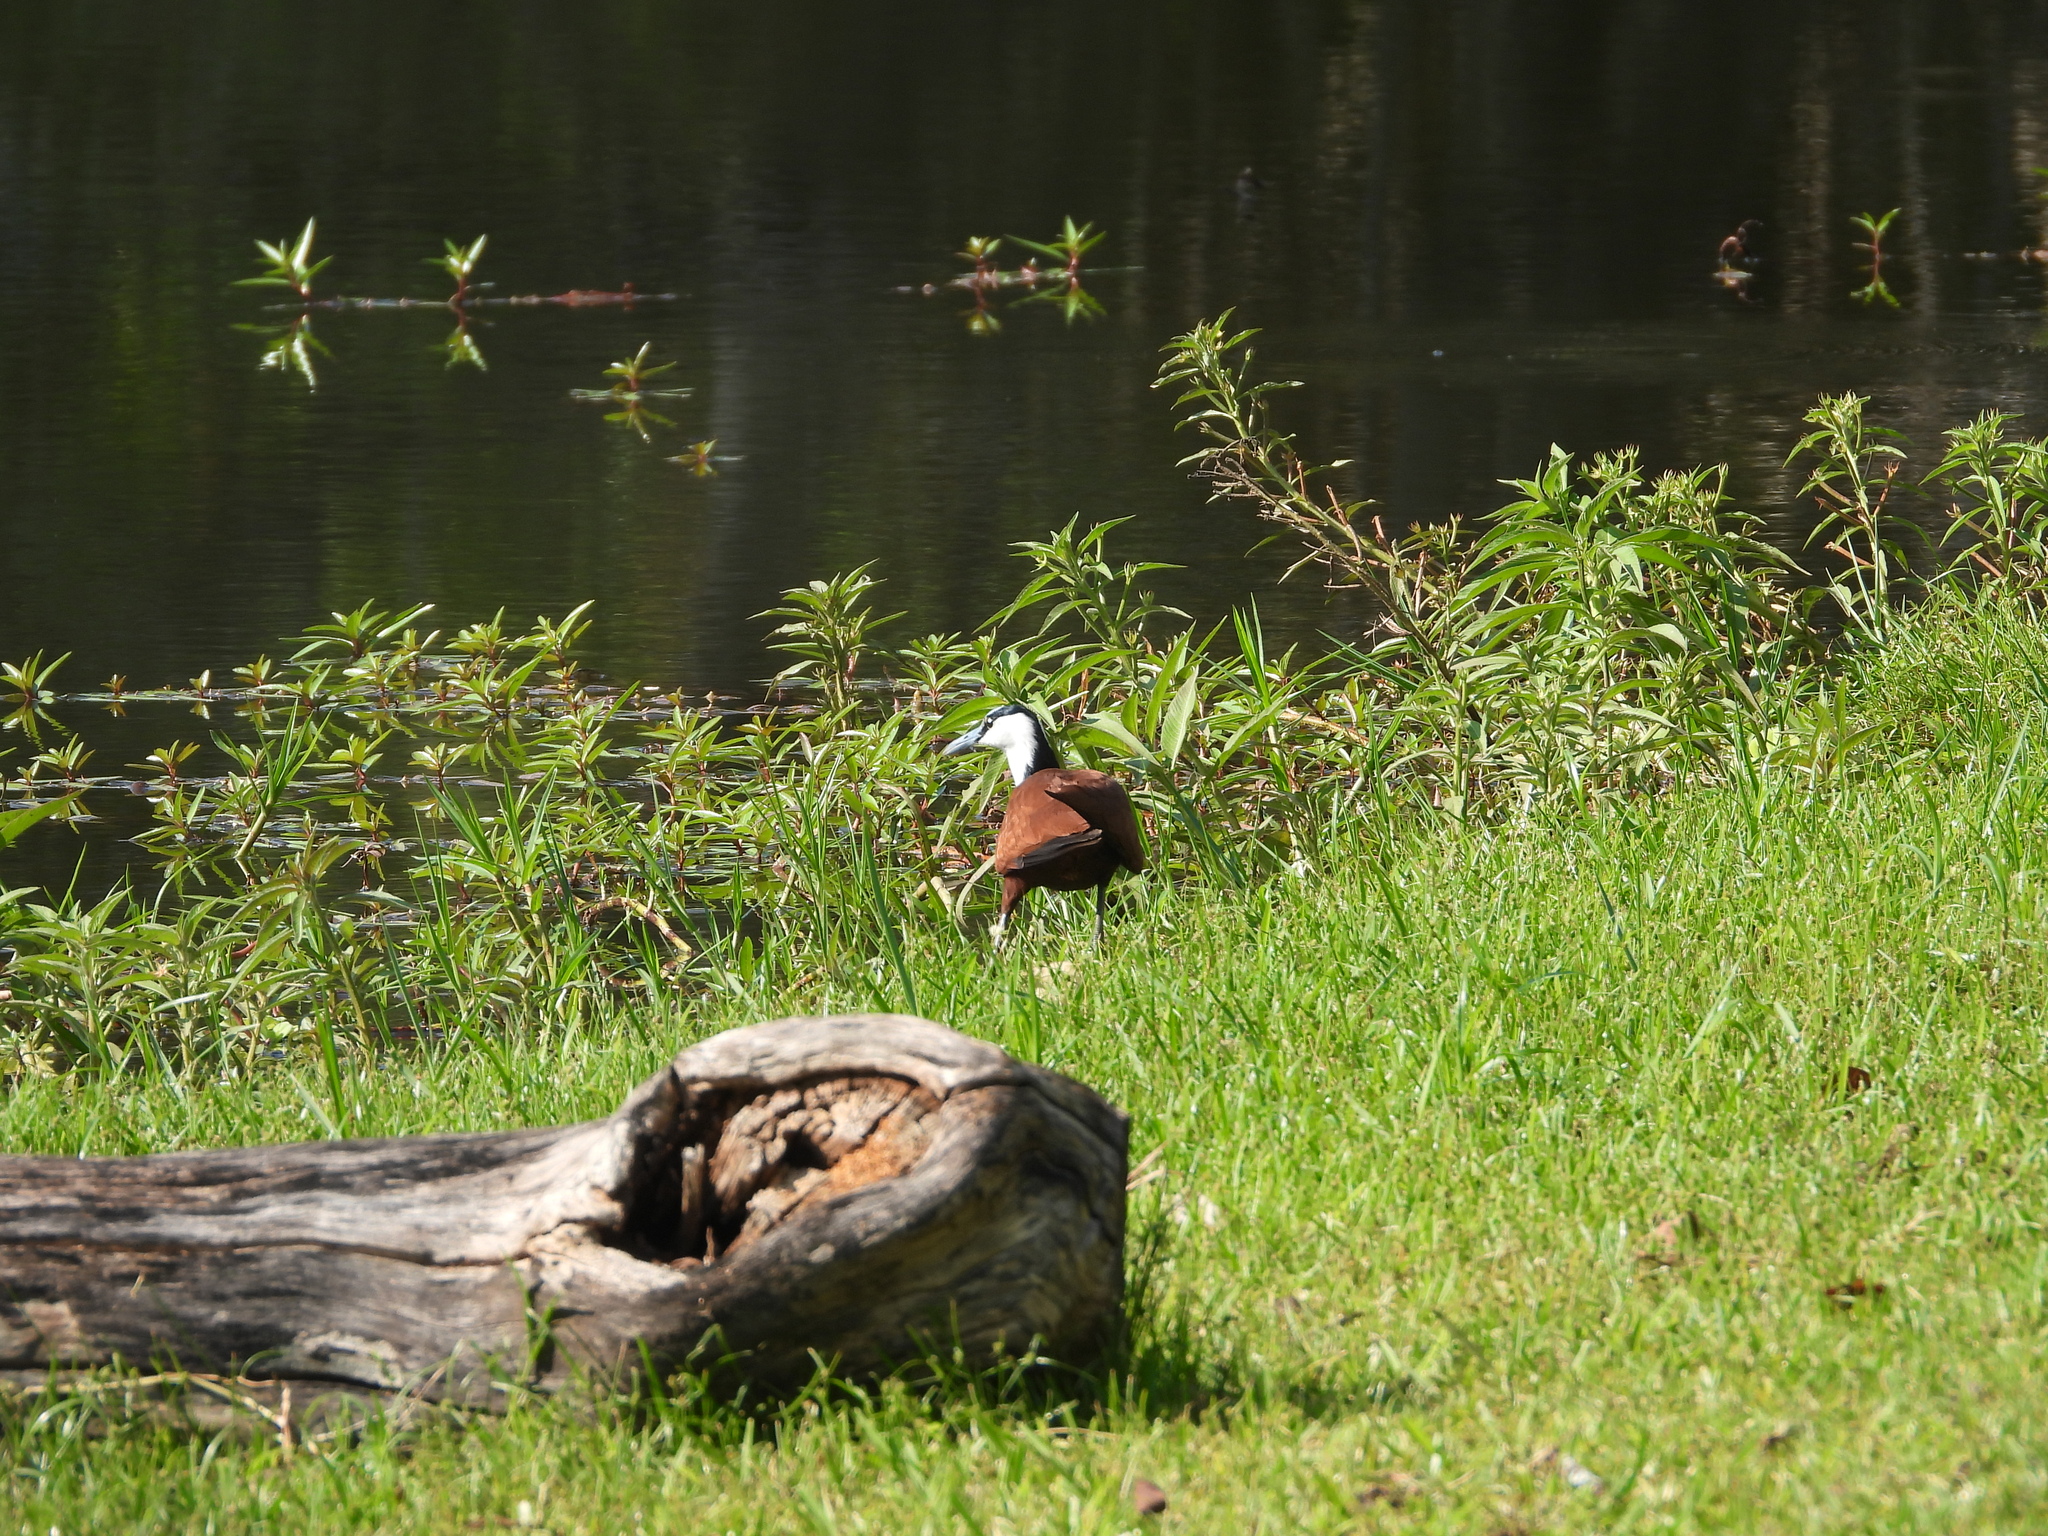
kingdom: Animalia
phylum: Chordata
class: Aves
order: Charadriiformes
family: Jacanidae
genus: Actophilornis
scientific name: Actophilornis africanus
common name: African jacana
